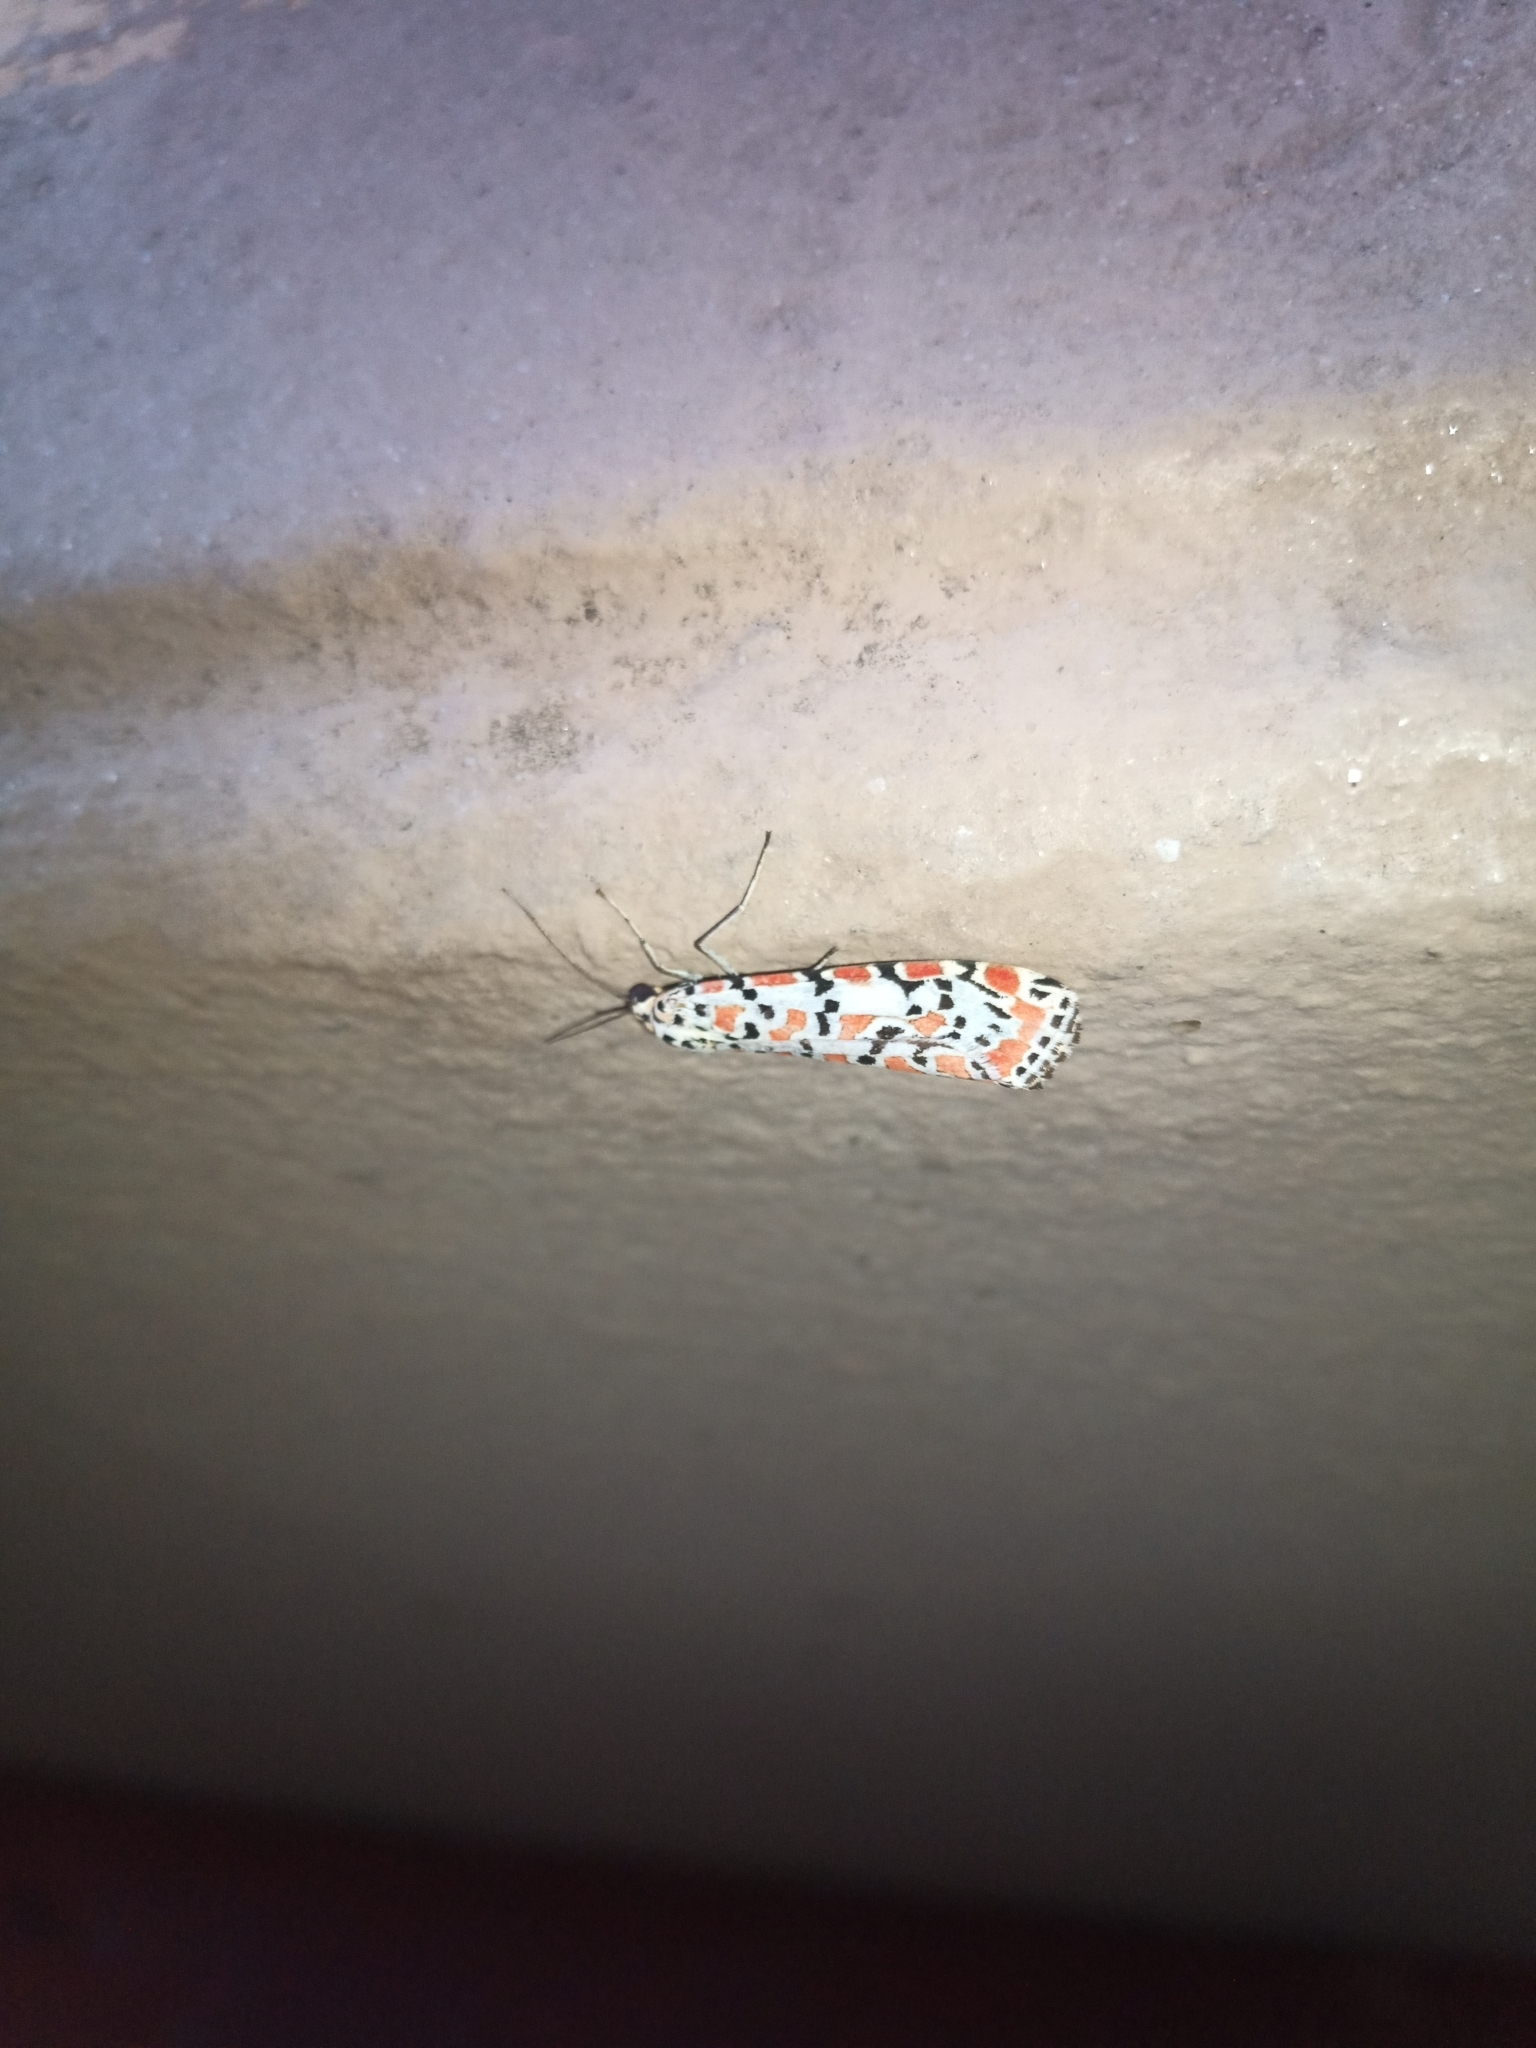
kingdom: Animalia
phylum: Arthropoda
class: Insecta
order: Lepidoptera
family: Erebidae
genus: Utetheisa
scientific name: Utetheisa pulchella
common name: Crimson speckled
